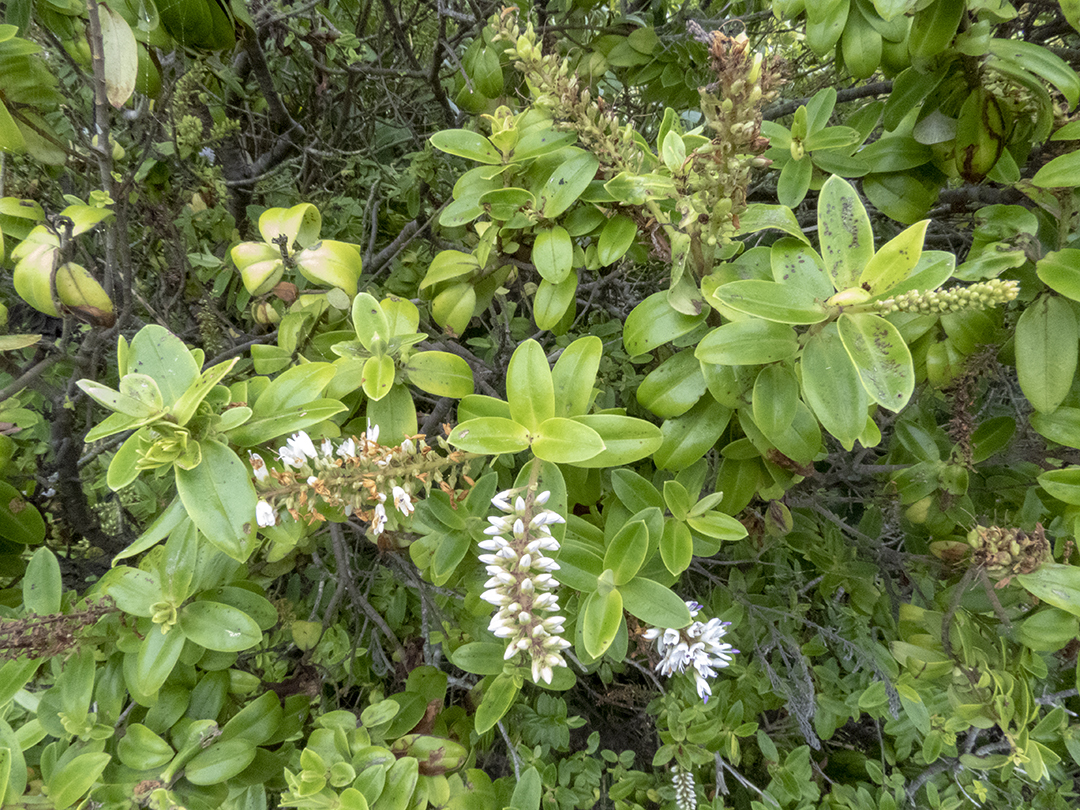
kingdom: Plantae
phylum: Tracheophyta
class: Magnoliopsida
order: Lamiales
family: Plantaginaceae
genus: Veronica
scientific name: Veronica leiophylla
